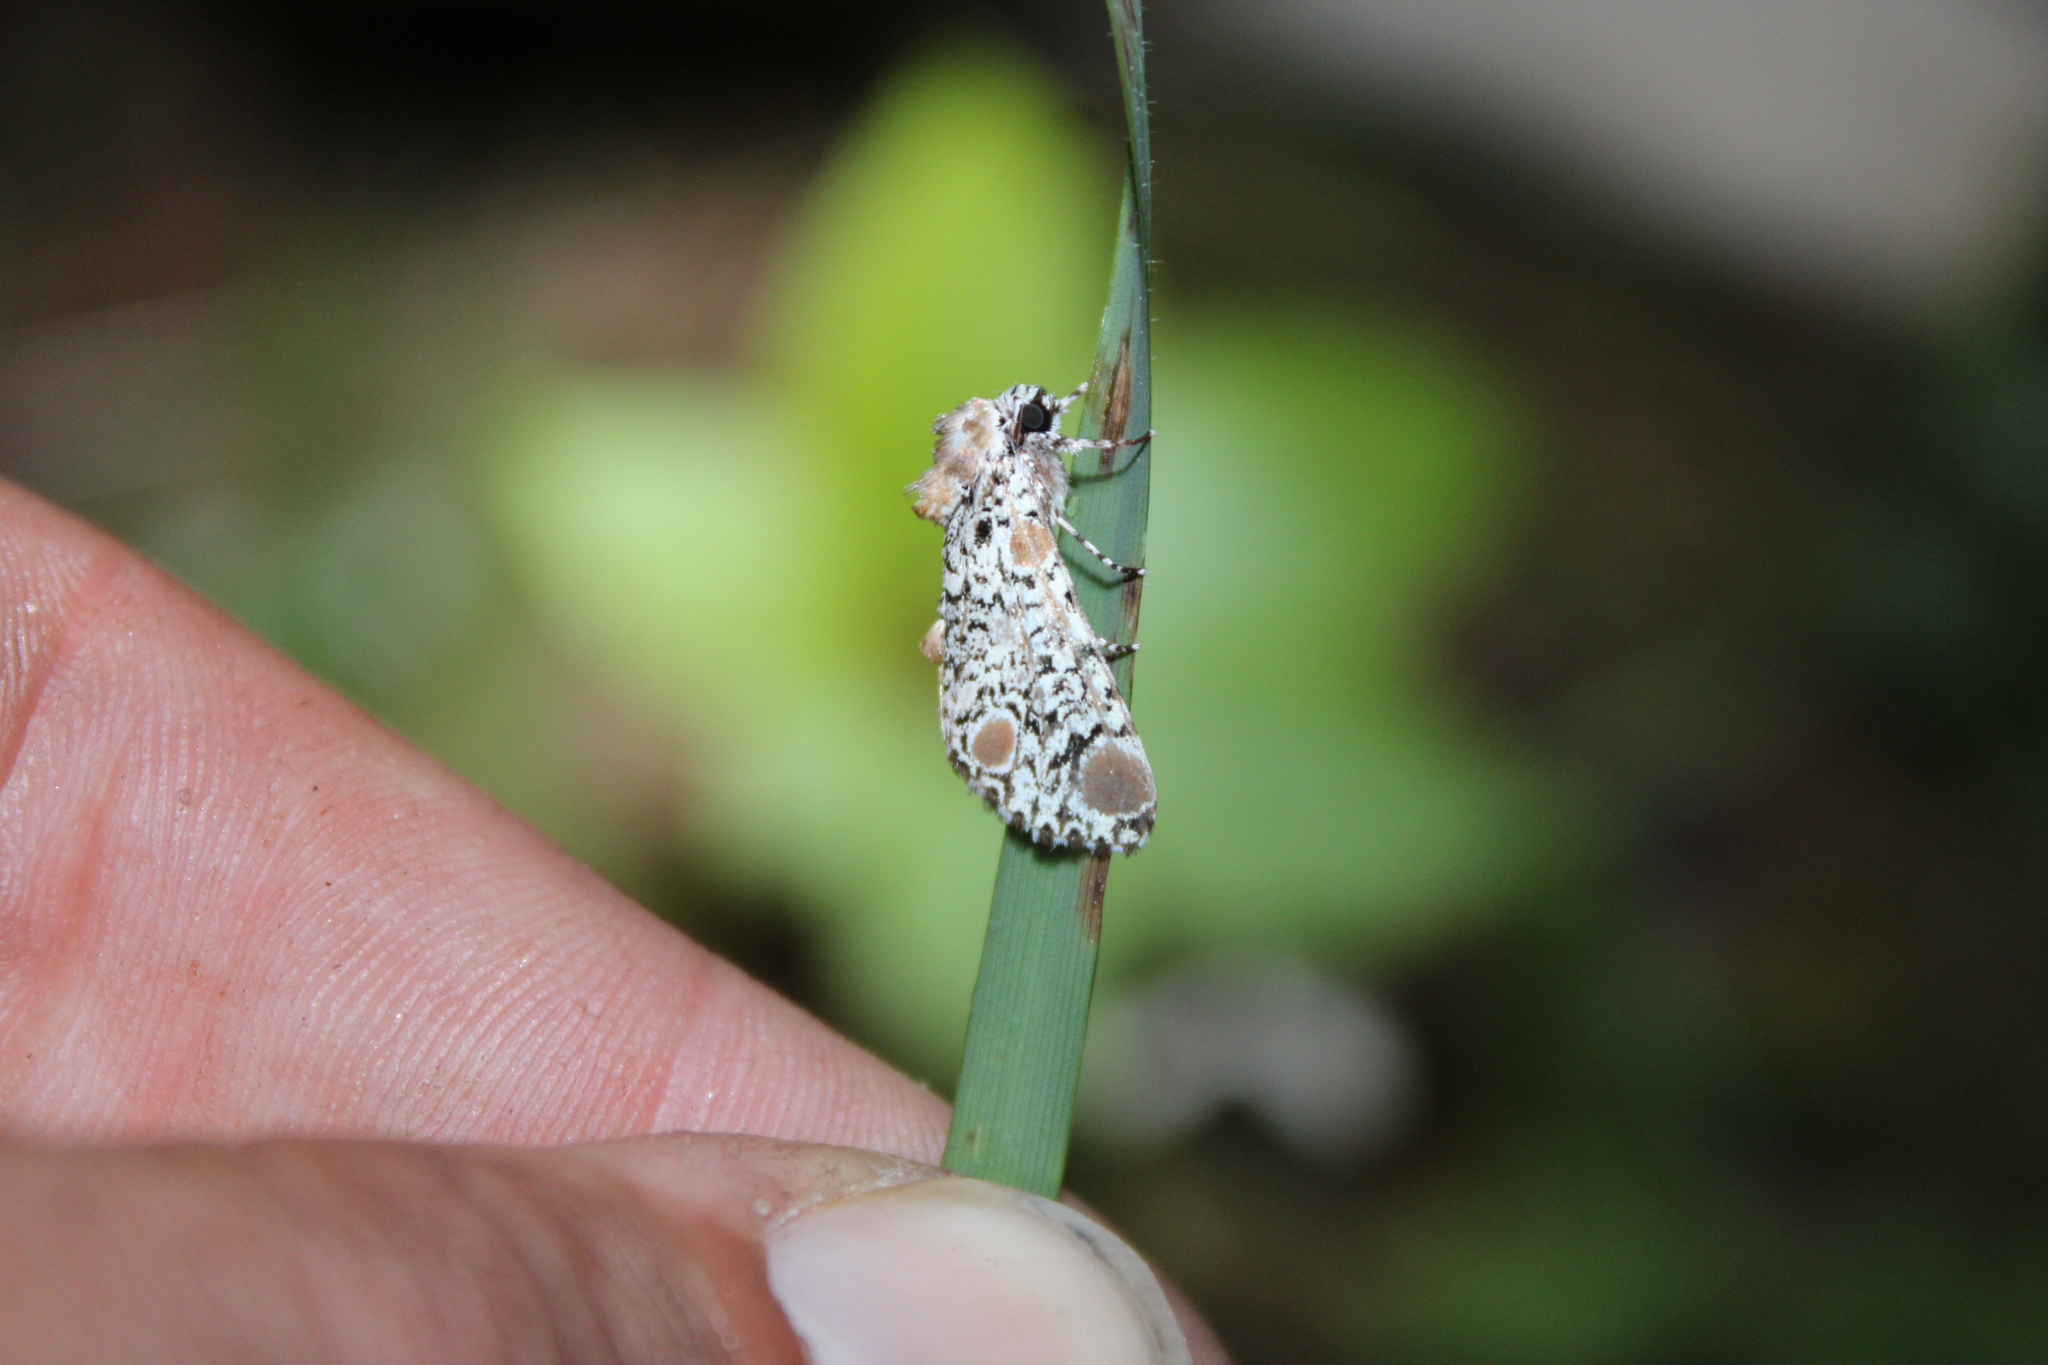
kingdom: Animalia
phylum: Arthropoda
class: Insecta
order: Lepidoptera
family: Noctuidae
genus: Harrisimemna
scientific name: Harrisimemna trisignata
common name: Harris threespot
